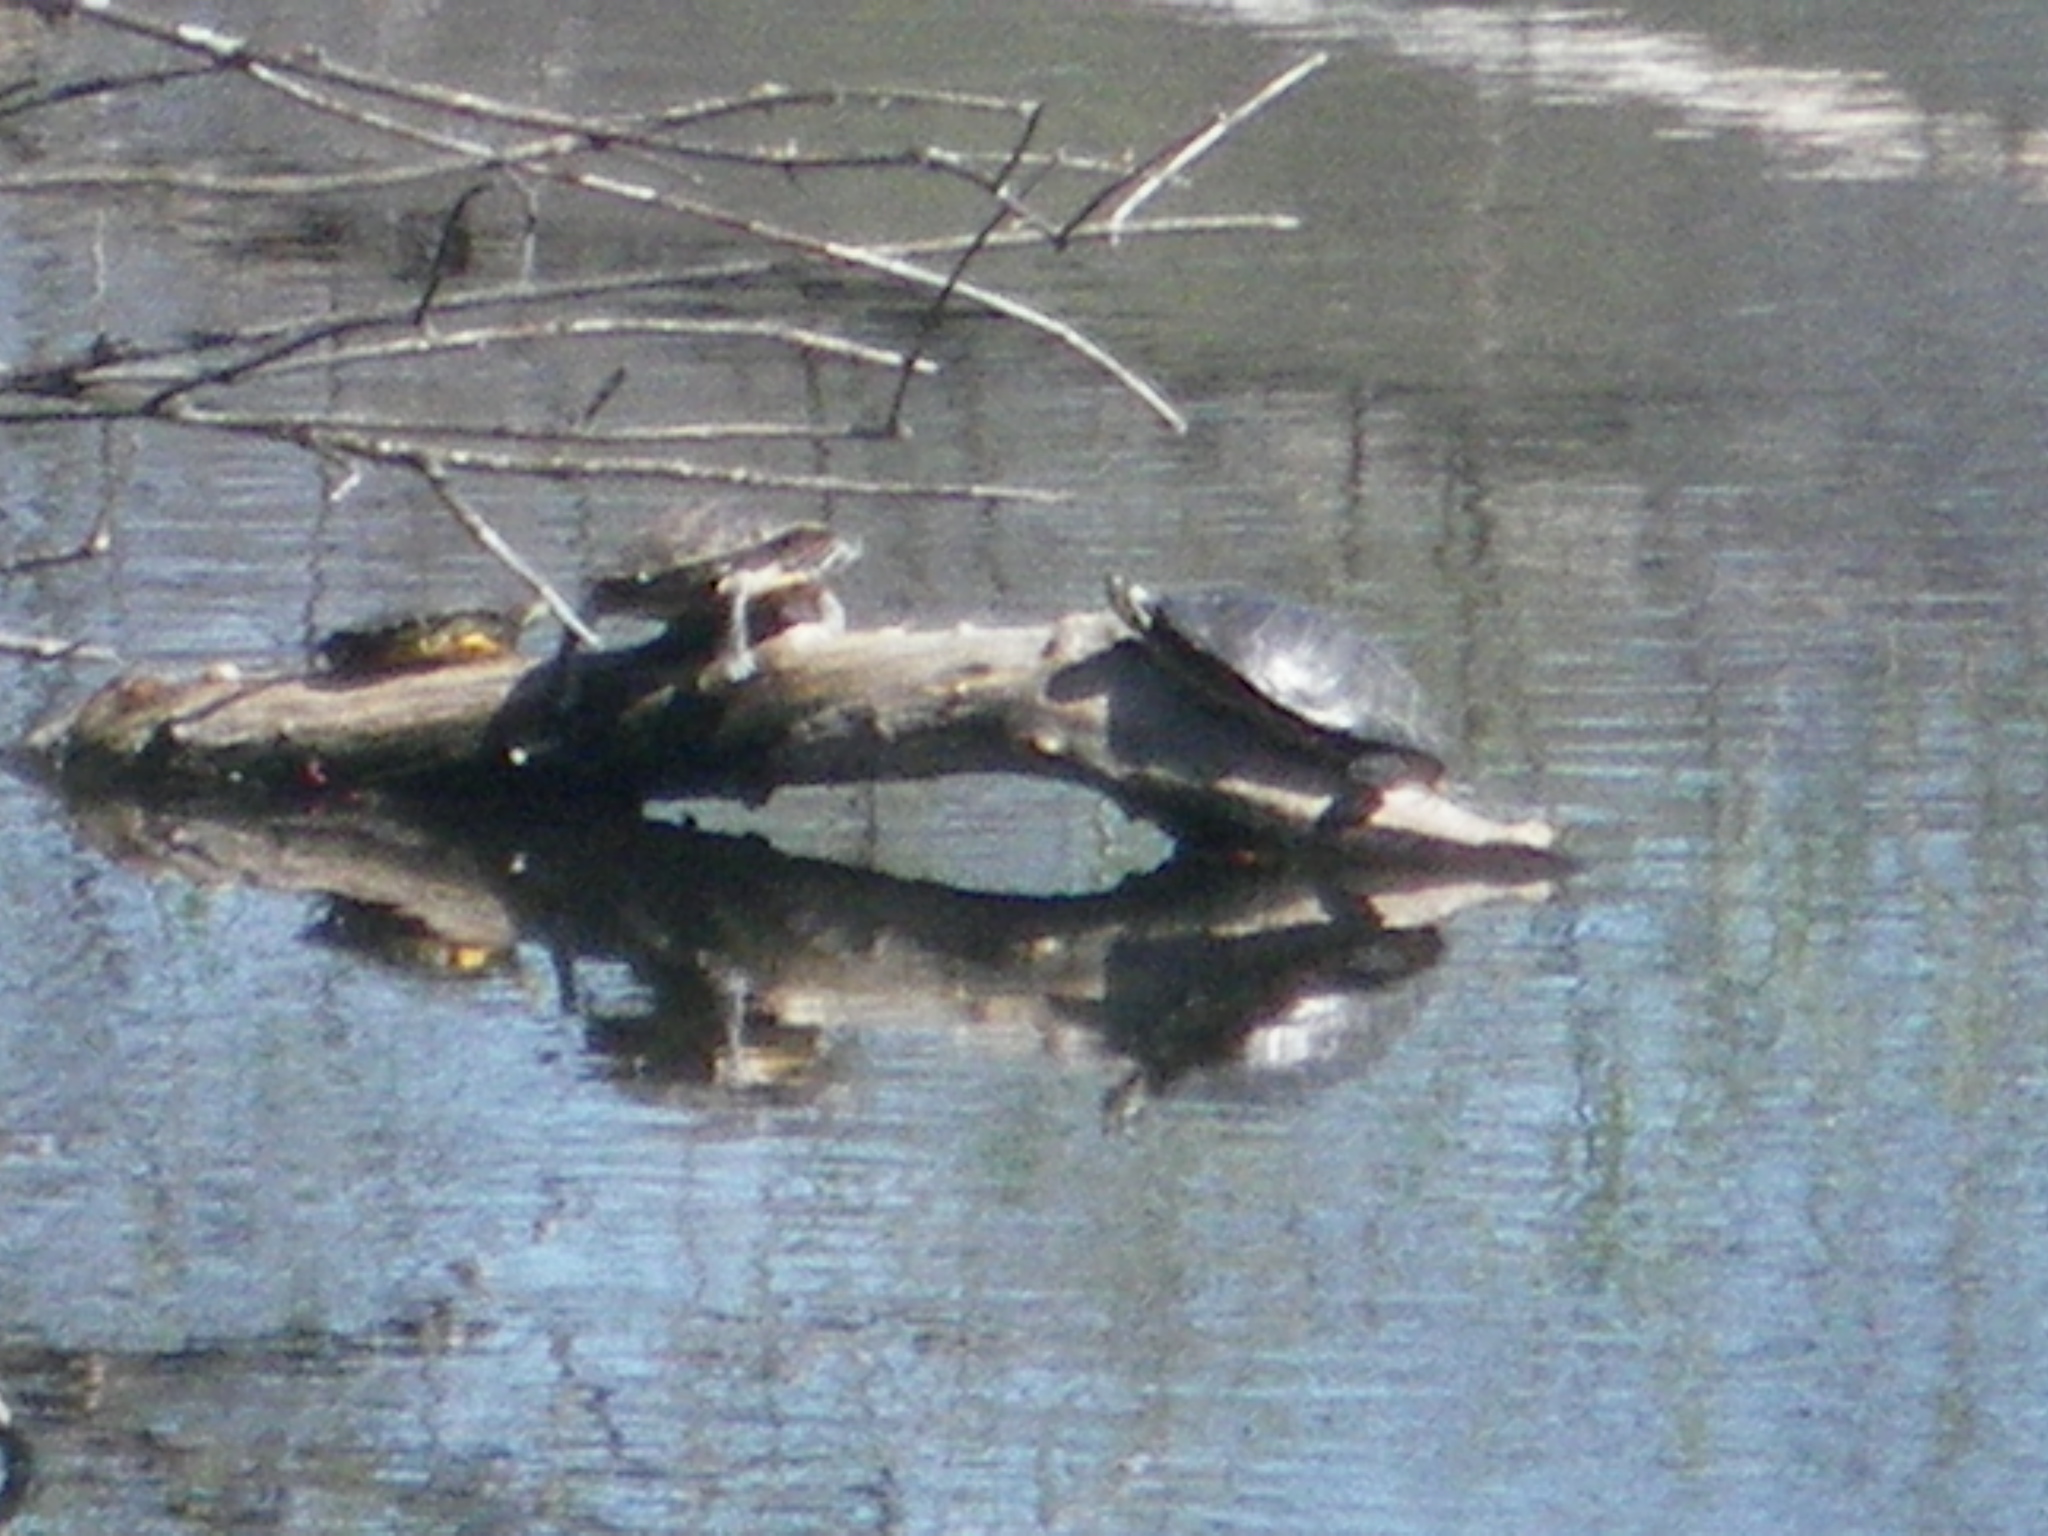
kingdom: Animalia
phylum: Chordata
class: Testudines
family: Emydidae
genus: Chrysemys
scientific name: Chrysemys picta
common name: Painted turtle
